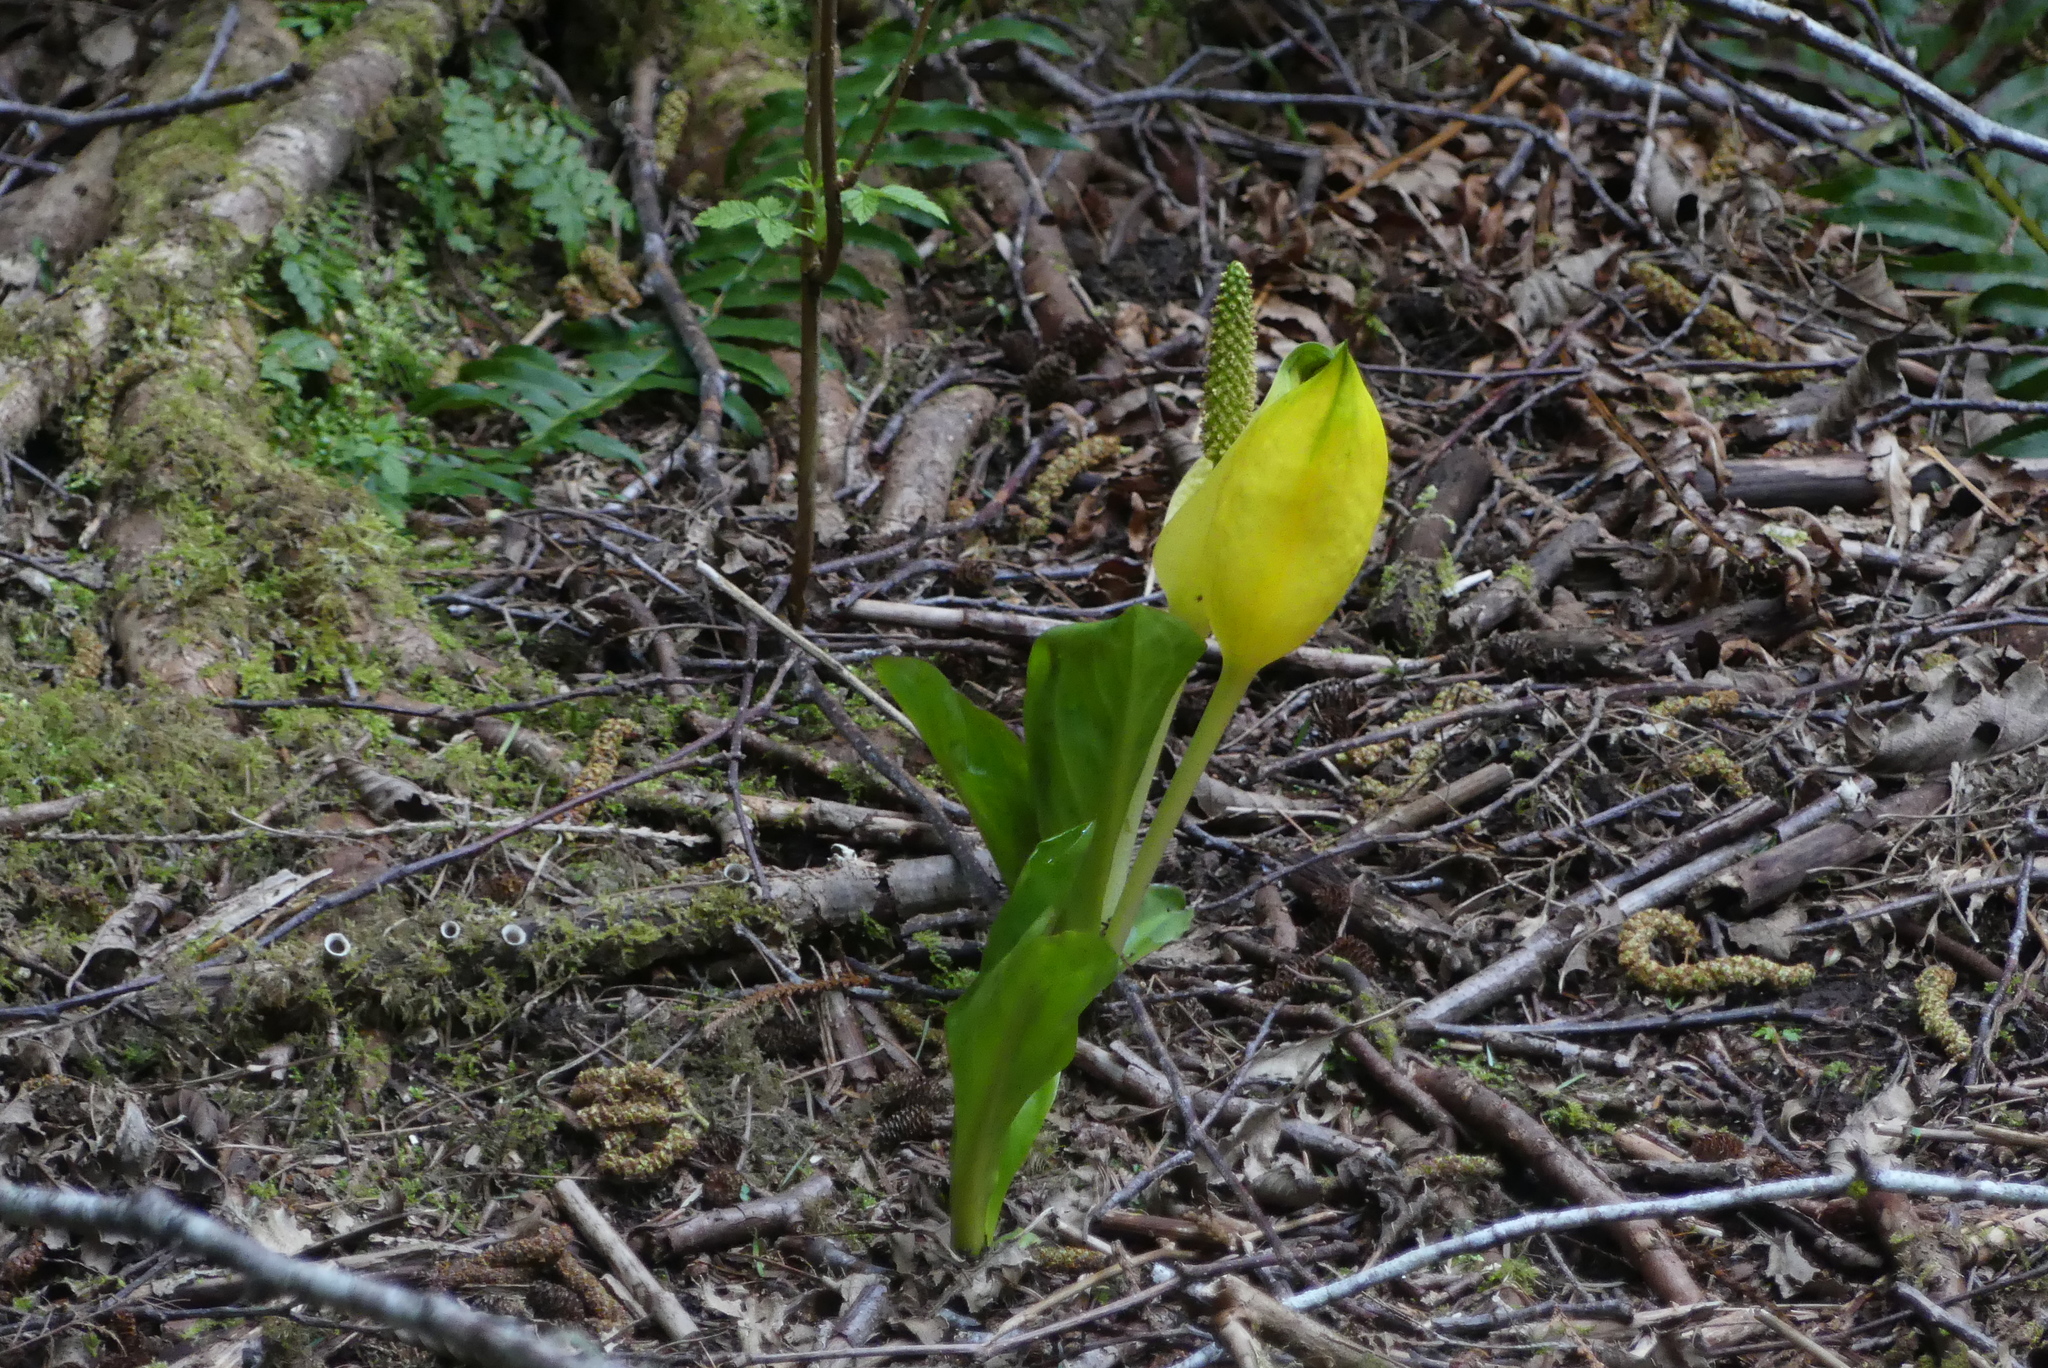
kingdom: Plantae
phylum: Tracheophyta
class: Liliopsida
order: Alismatales
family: Araceae
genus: Lysichiton
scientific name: Lysichiton americanus
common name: American skunk cabbage
